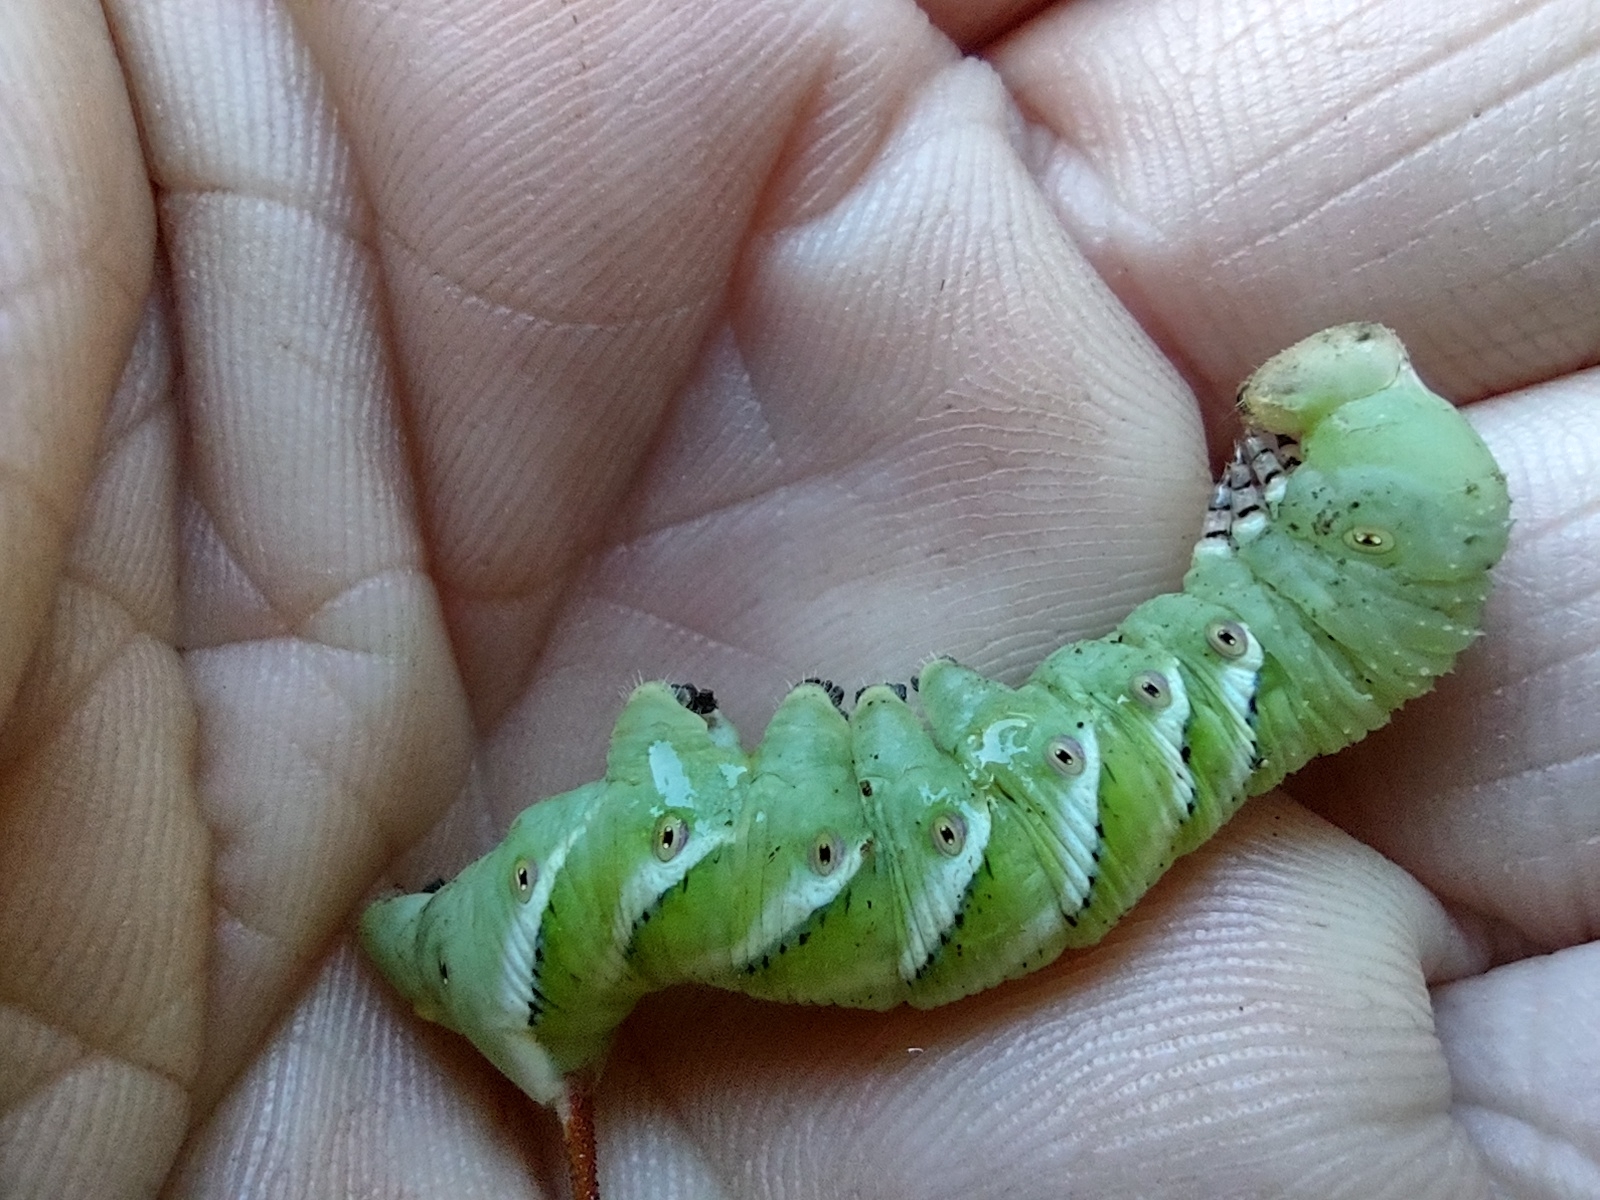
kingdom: Animalia
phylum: Arthropoda
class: Insecta
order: Lepidoptera
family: Sphingidae
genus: Manduca
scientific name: Manduca sexta
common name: Carolina sphinx
